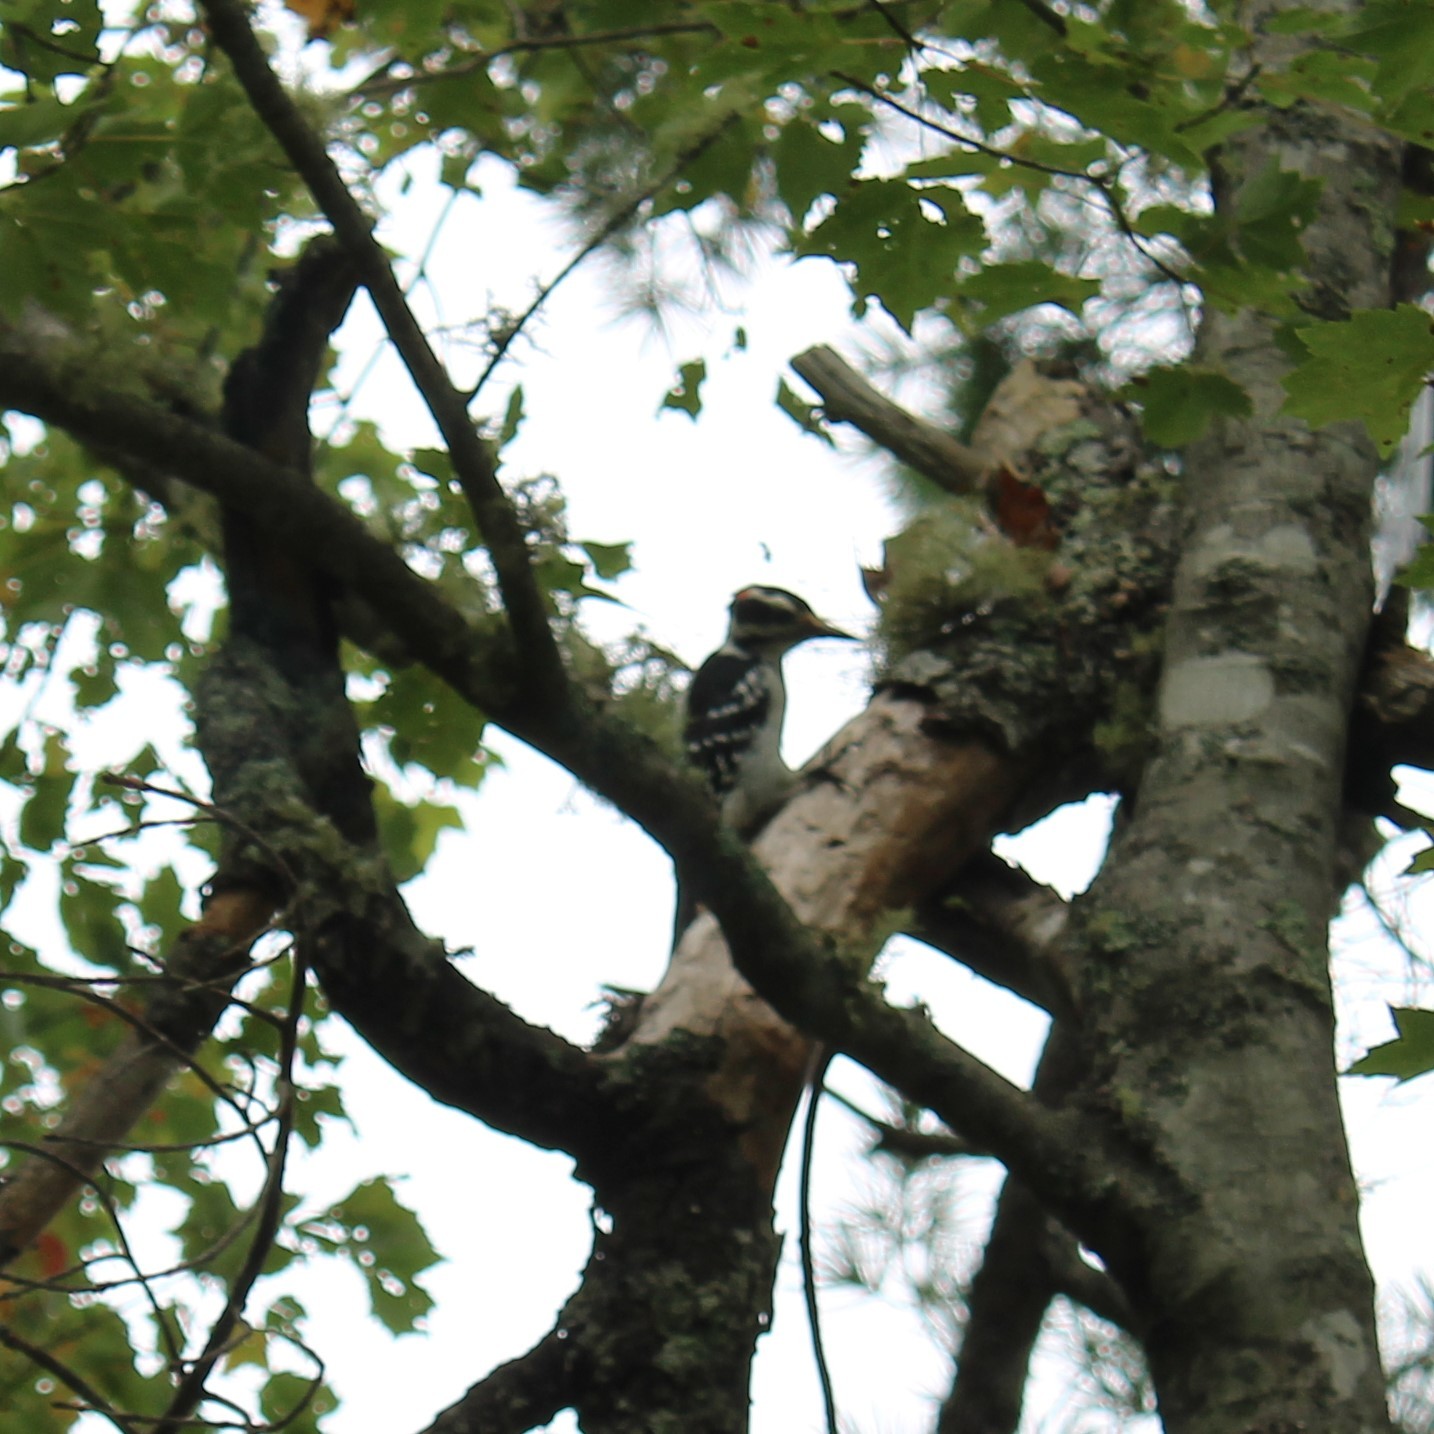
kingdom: Animalia
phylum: Chordata
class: Aves
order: Piciformes
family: Picidae
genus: Leuconotopicus
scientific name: Leuconotopicus villosus
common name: Hairy woodpecker
